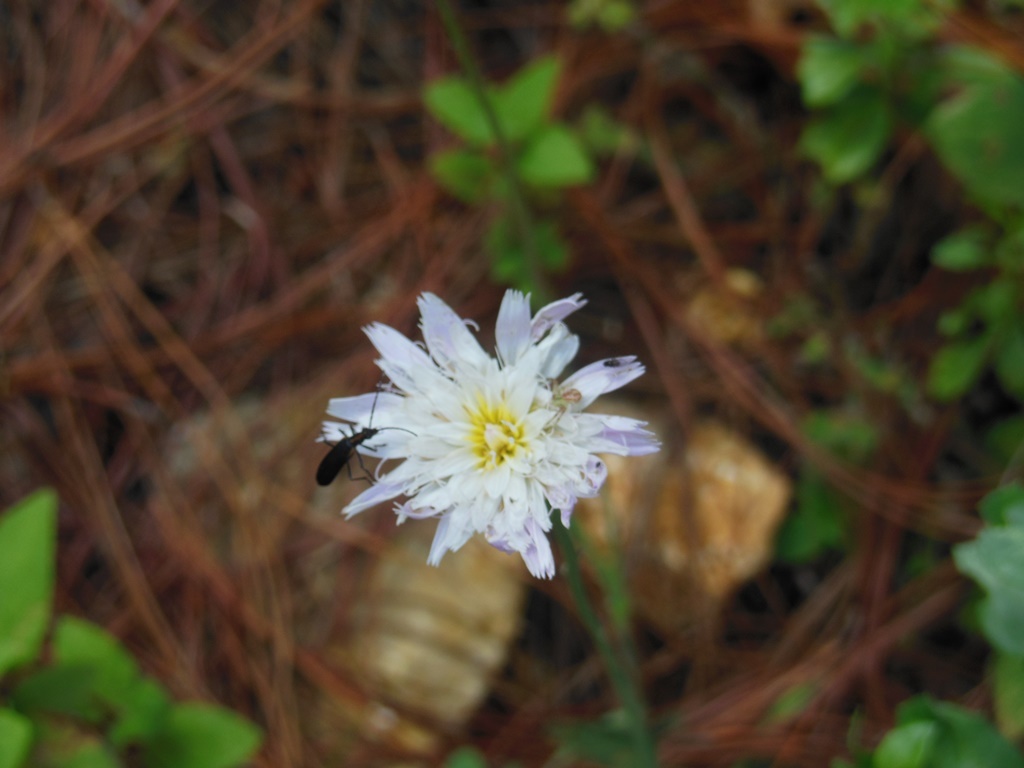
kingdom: Plantae
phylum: Tracheophyta
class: Magnoliopsida
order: Asterales
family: Asteraceae
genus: Pinaropappus
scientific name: Pinaropappus spathulatus
